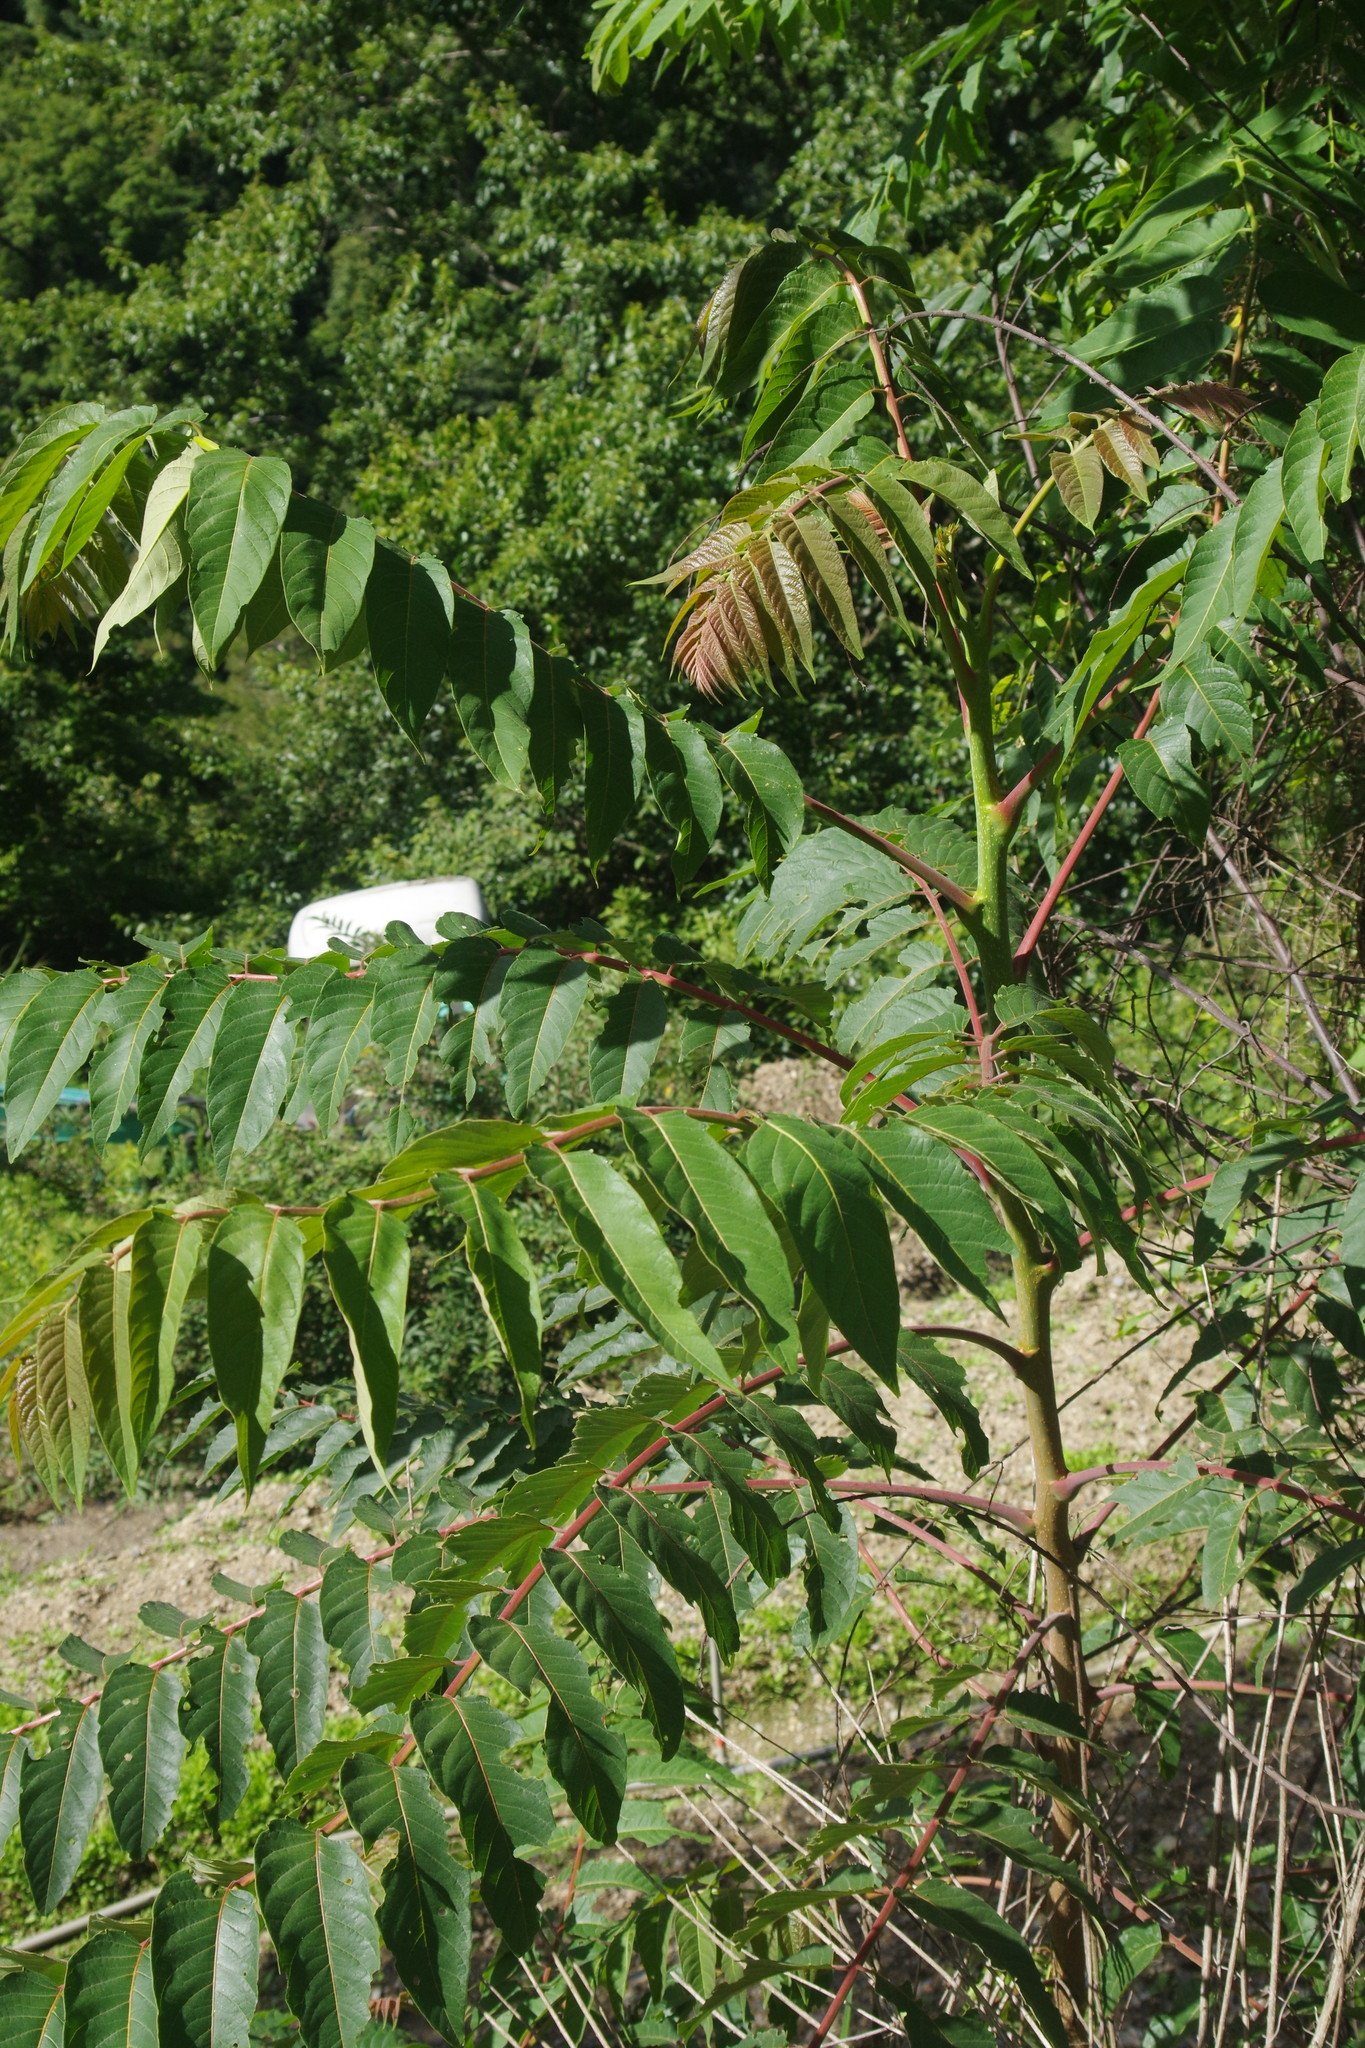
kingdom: Plantae
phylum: Tracheophyta
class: Magnoliopsida
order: Sapindales
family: Simaroubaceae
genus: Ailanthus
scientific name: Ailanthus altissima
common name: Tree-of-heaven
